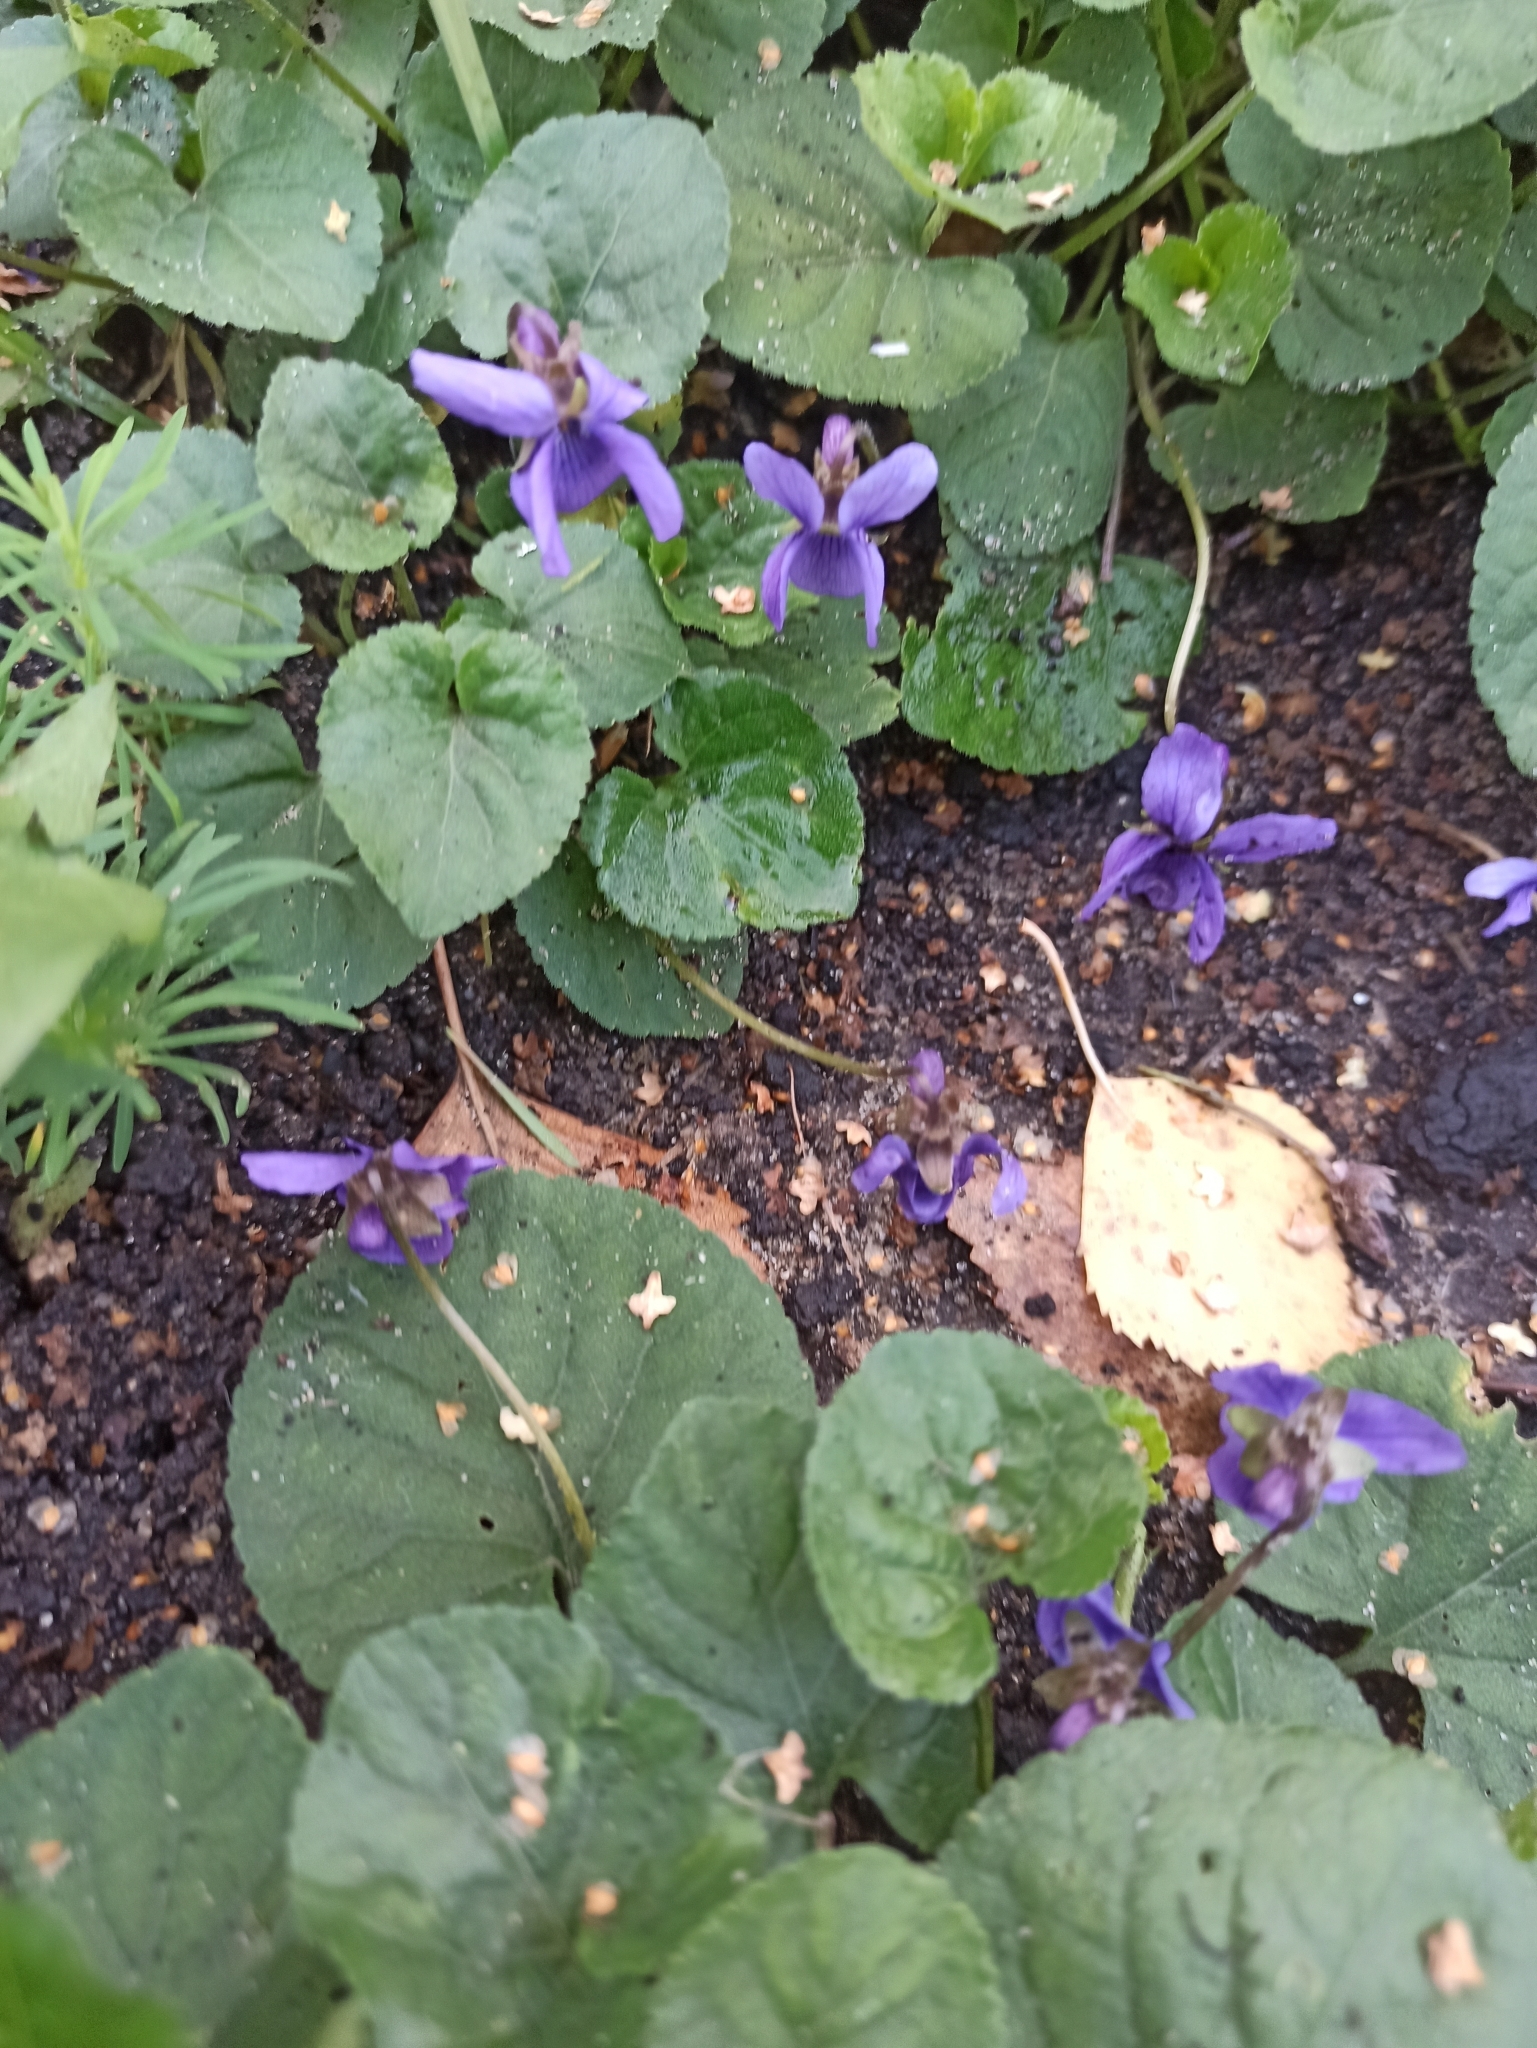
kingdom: Plantae
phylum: Tracheophyta
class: Magnoliopsida
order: Malpighiales
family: Violaceae
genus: Viola
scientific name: Viola odorata
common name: Sweet violet
